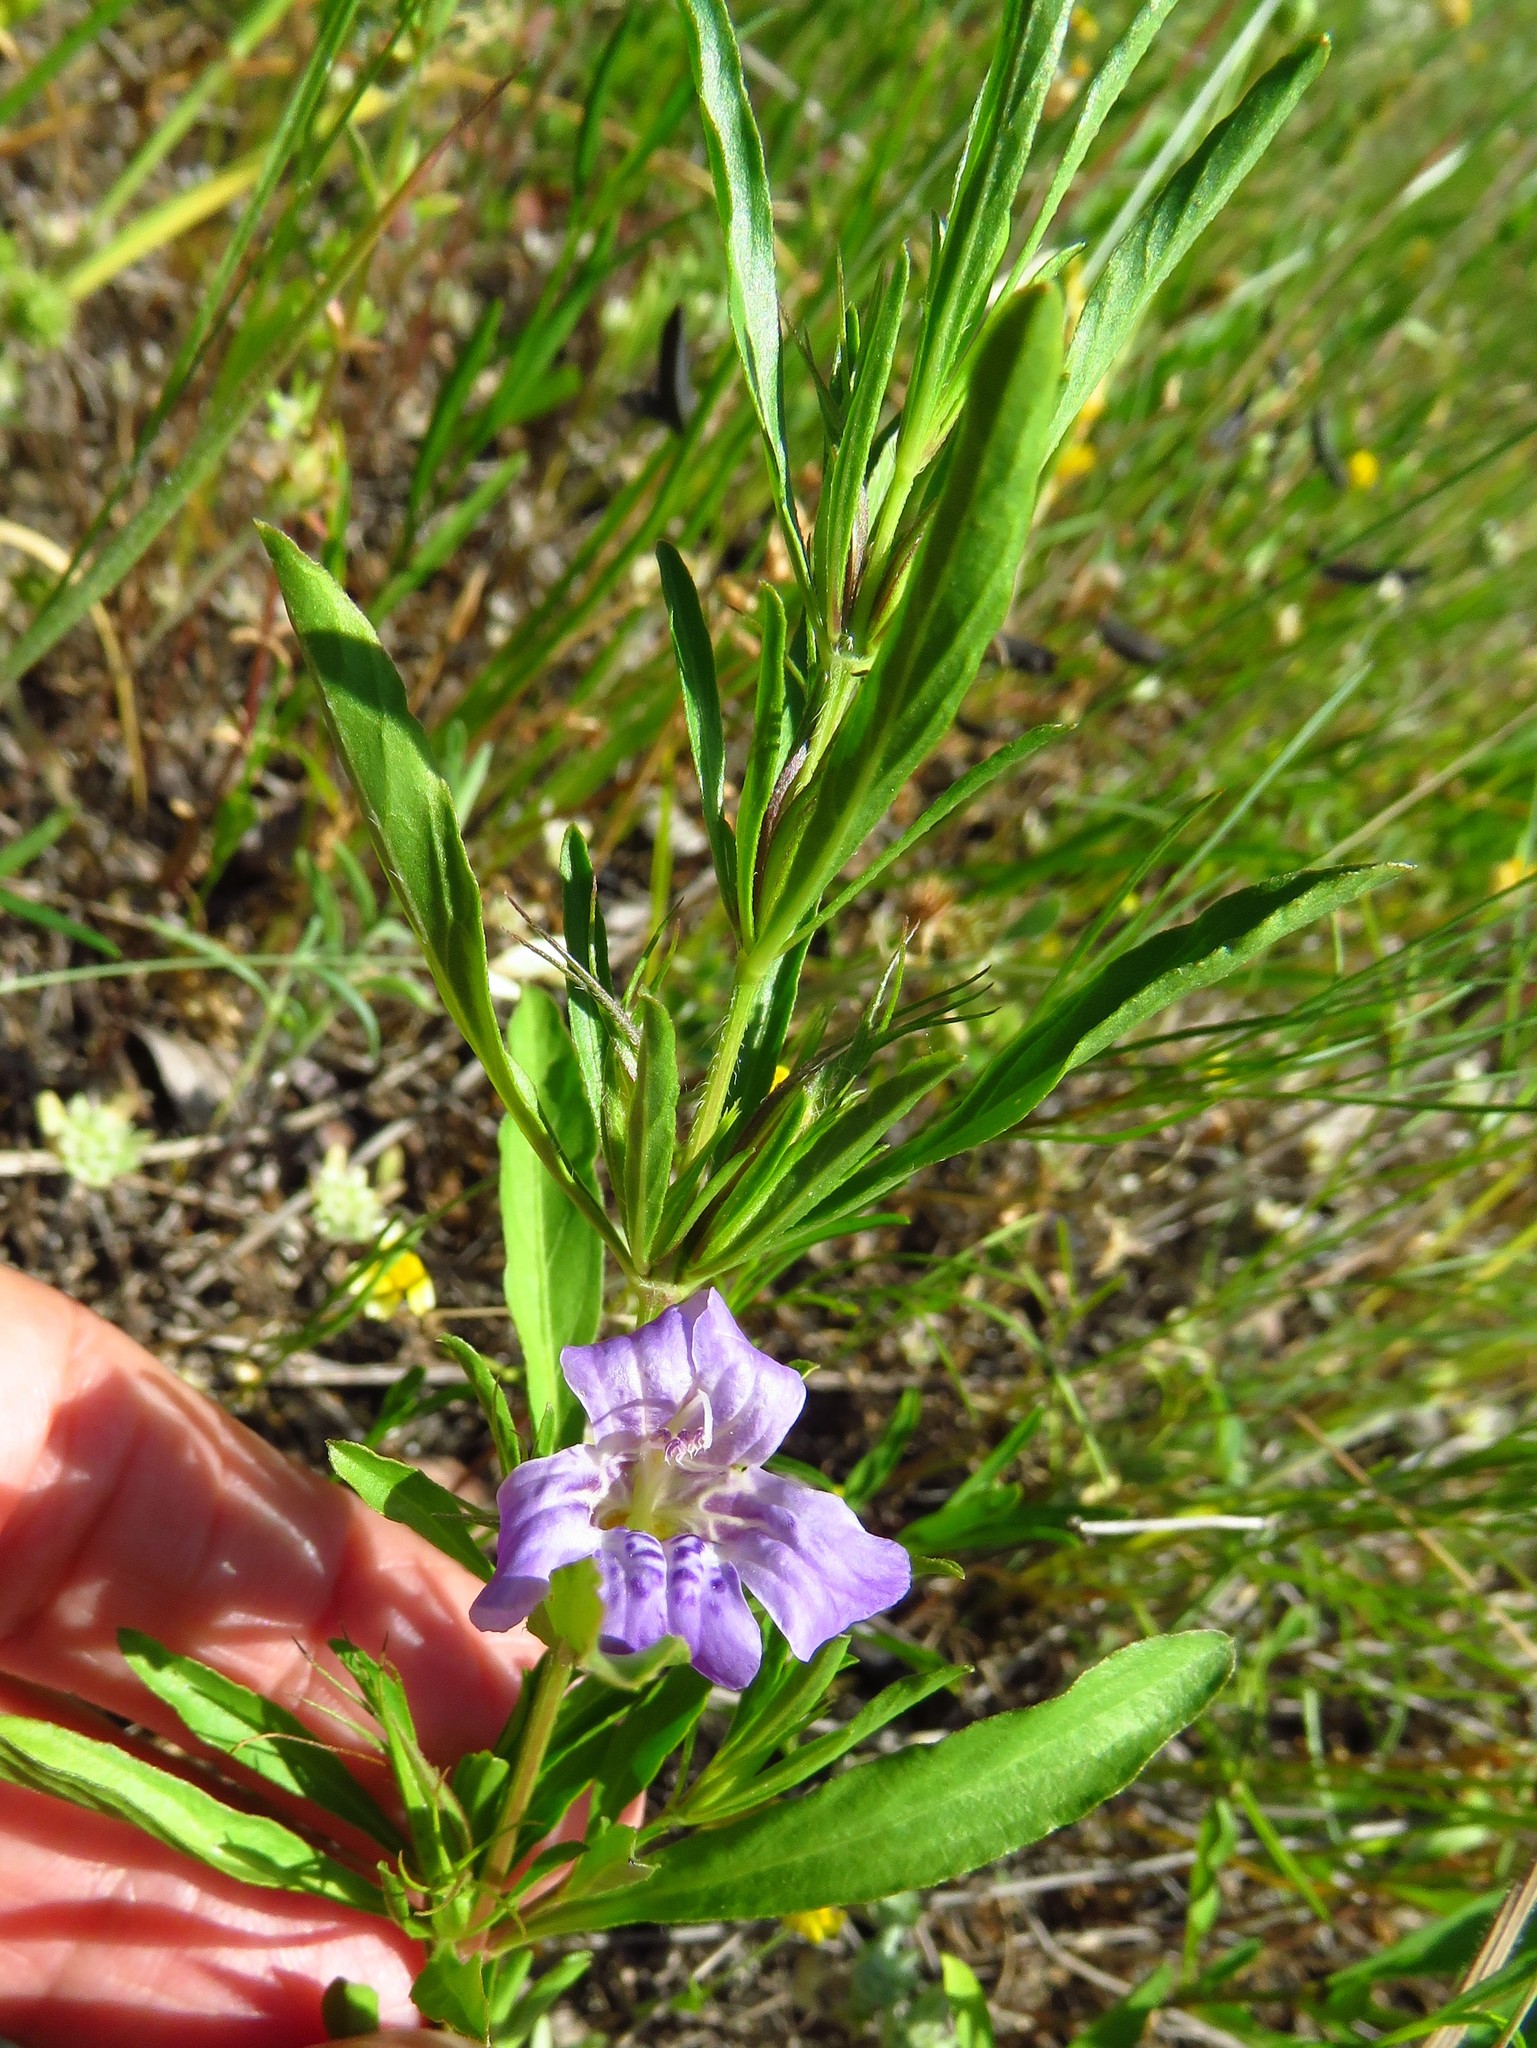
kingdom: Plantae
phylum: Tracheophyta
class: Magnoliopsida
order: Lamiales
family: Acanthaceae
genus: Dyschoriste
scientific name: Dyschoriste linearis
